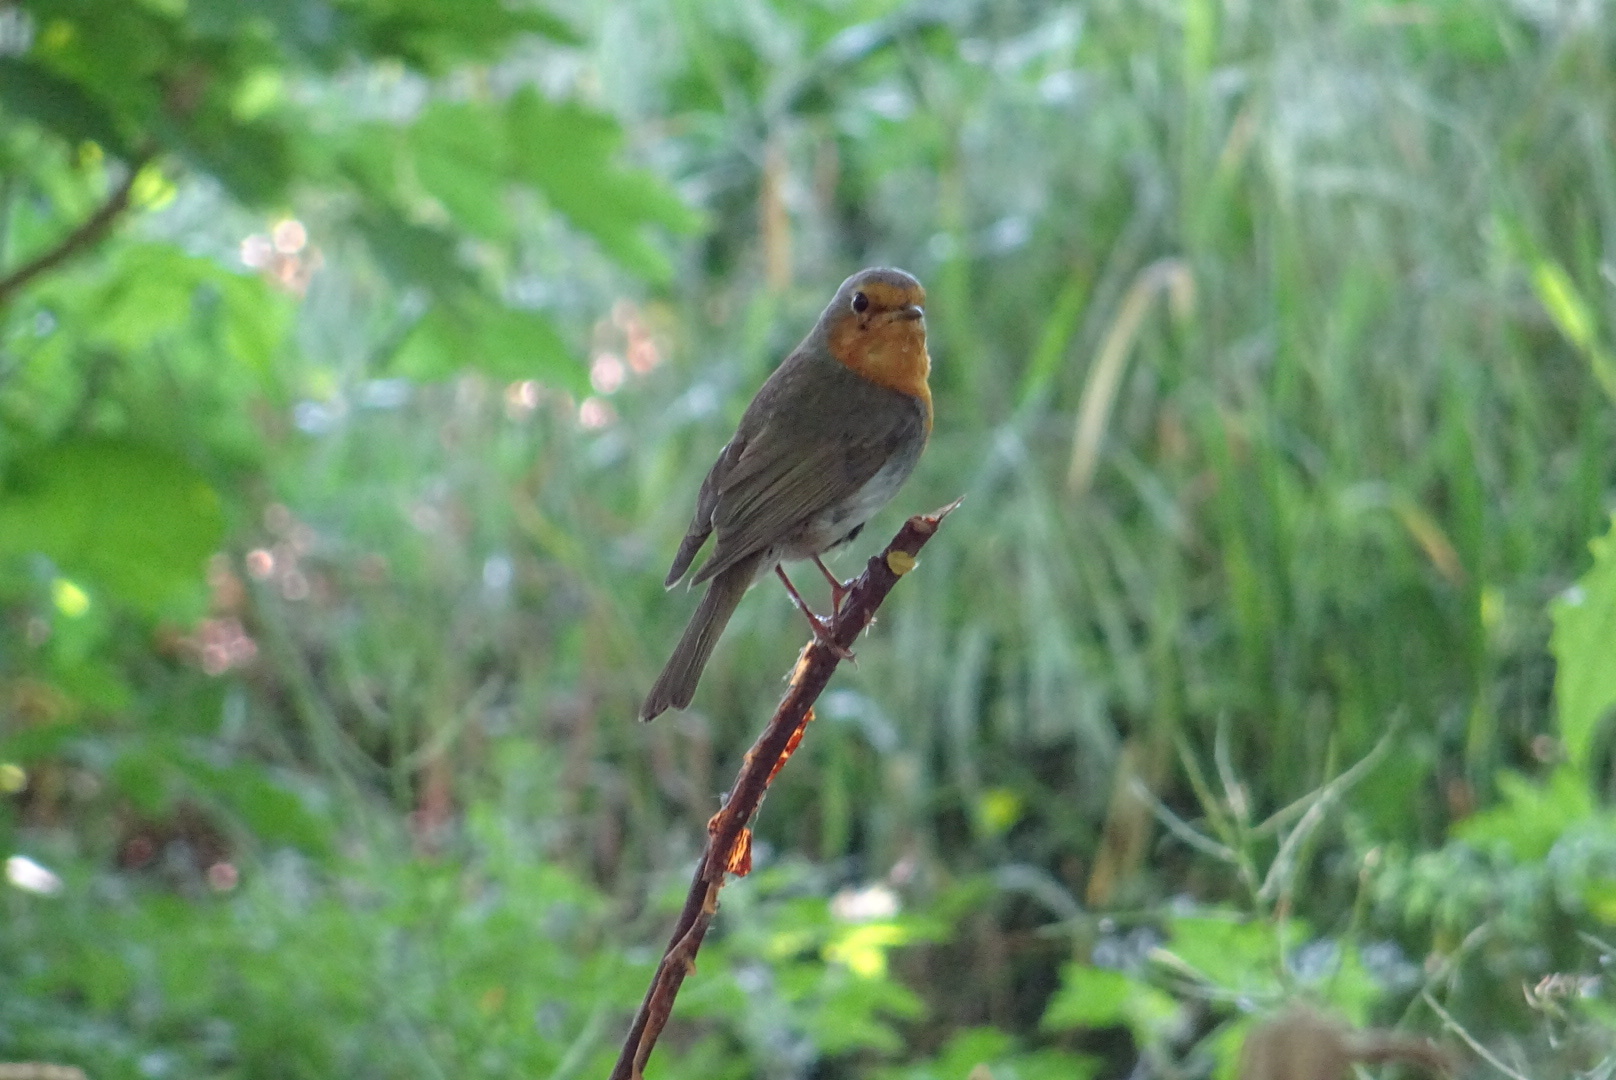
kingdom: Animalia
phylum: Chordata
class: Aves
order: Passeriformes
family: Muscicapidae
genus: Erithacus
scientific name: Erithacus rubecula
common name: European robin
